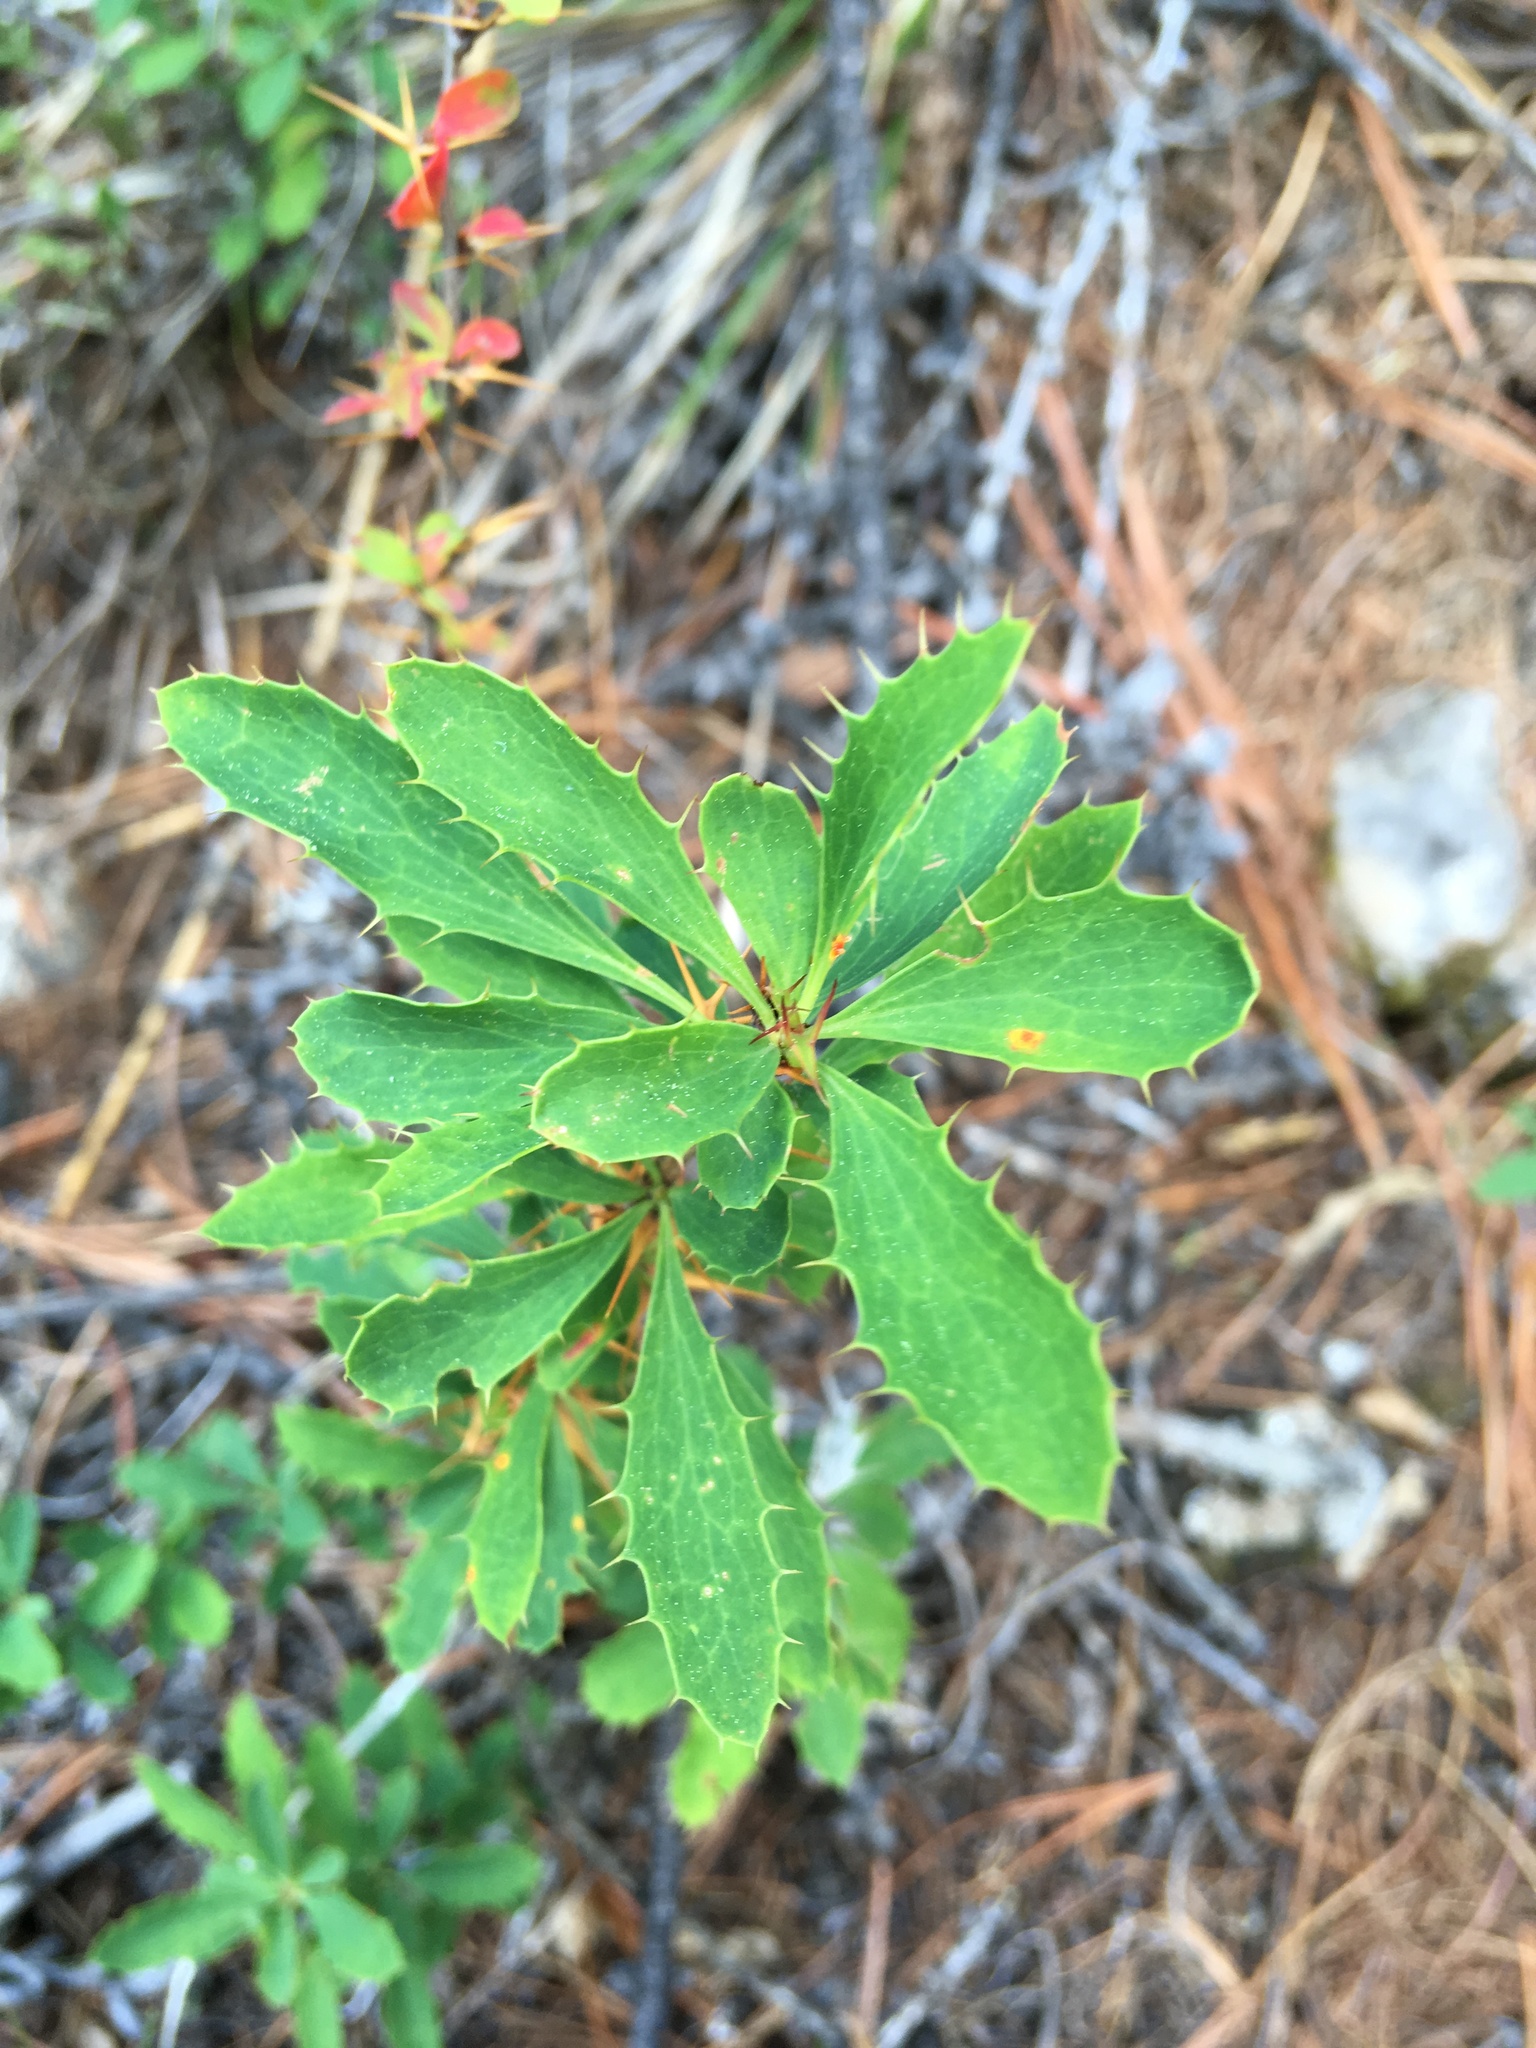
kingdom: Plantae
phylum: Tracheophyta
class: Magnoliopsida
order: Ranunculales
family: Berberidaceae
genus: Berberis
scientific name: Berberis sibirica
